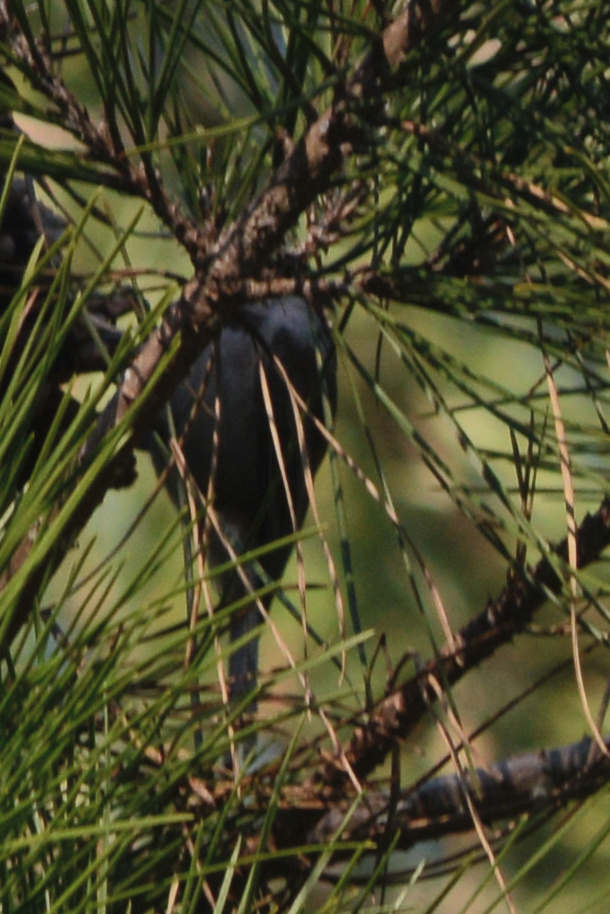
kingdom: Animalia
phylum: Chordata
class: Aves
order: Passeriformes
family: Paridae
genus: Poecile
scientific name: Poecile rufescens
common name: Chestnut-backed chickadee
